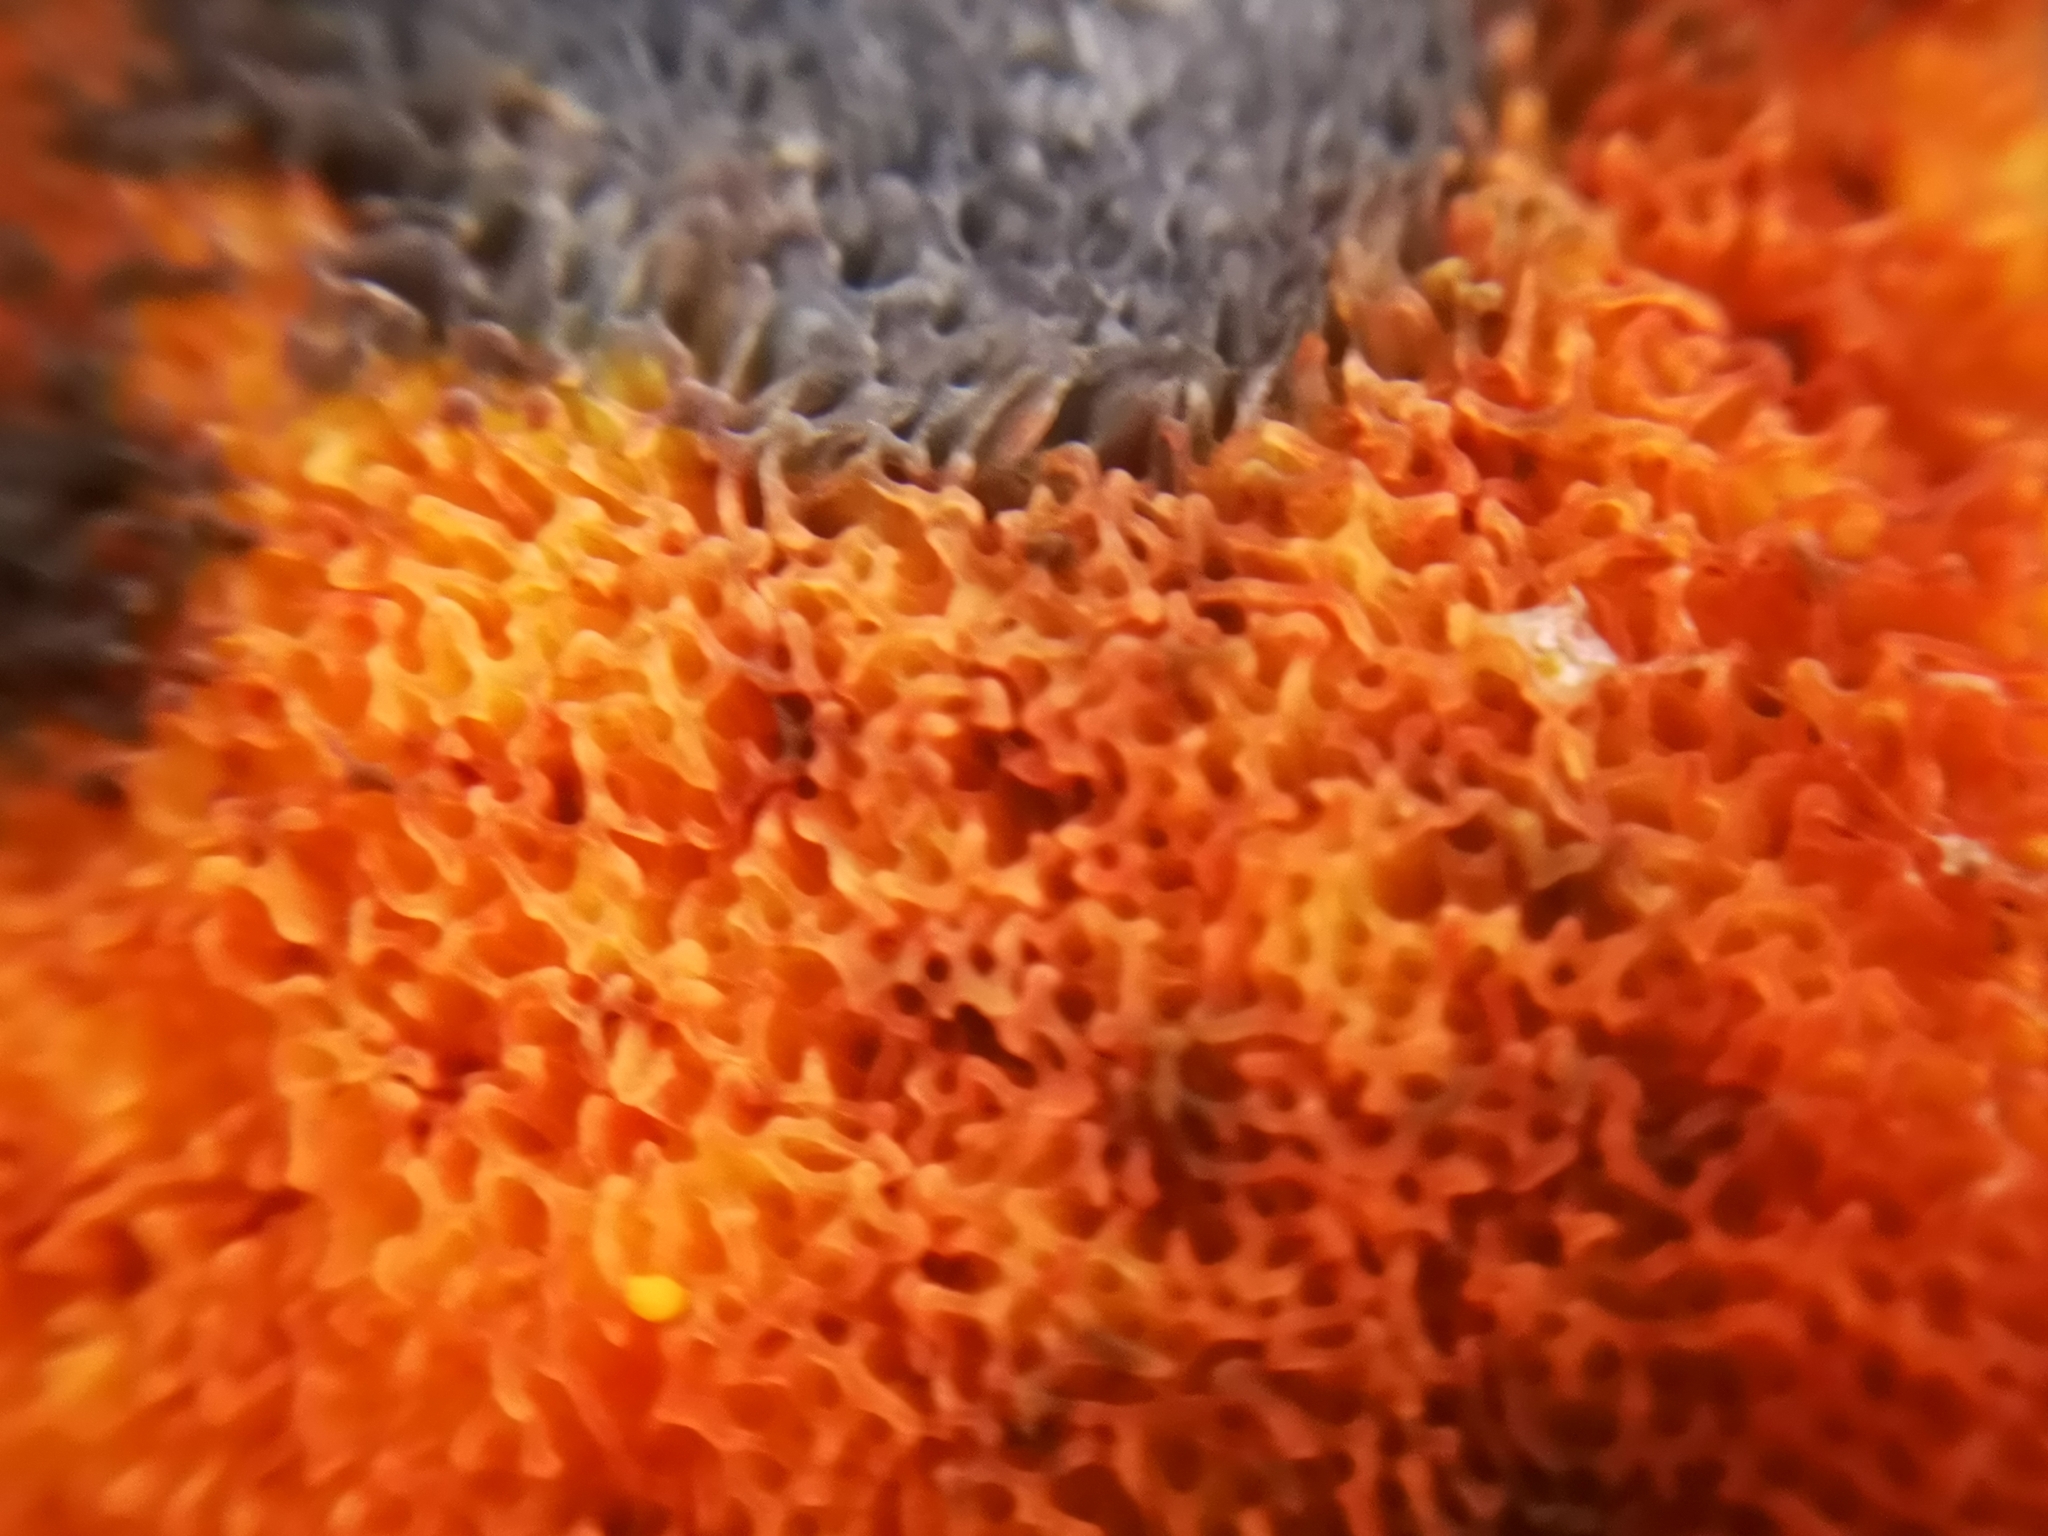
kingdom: Fungi
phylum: Basidiomycota
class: Agaricomycetes
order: Boletales
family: Boletaceae
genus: Suillellus
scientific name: Suillellus luridus
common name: Lurid bolete
